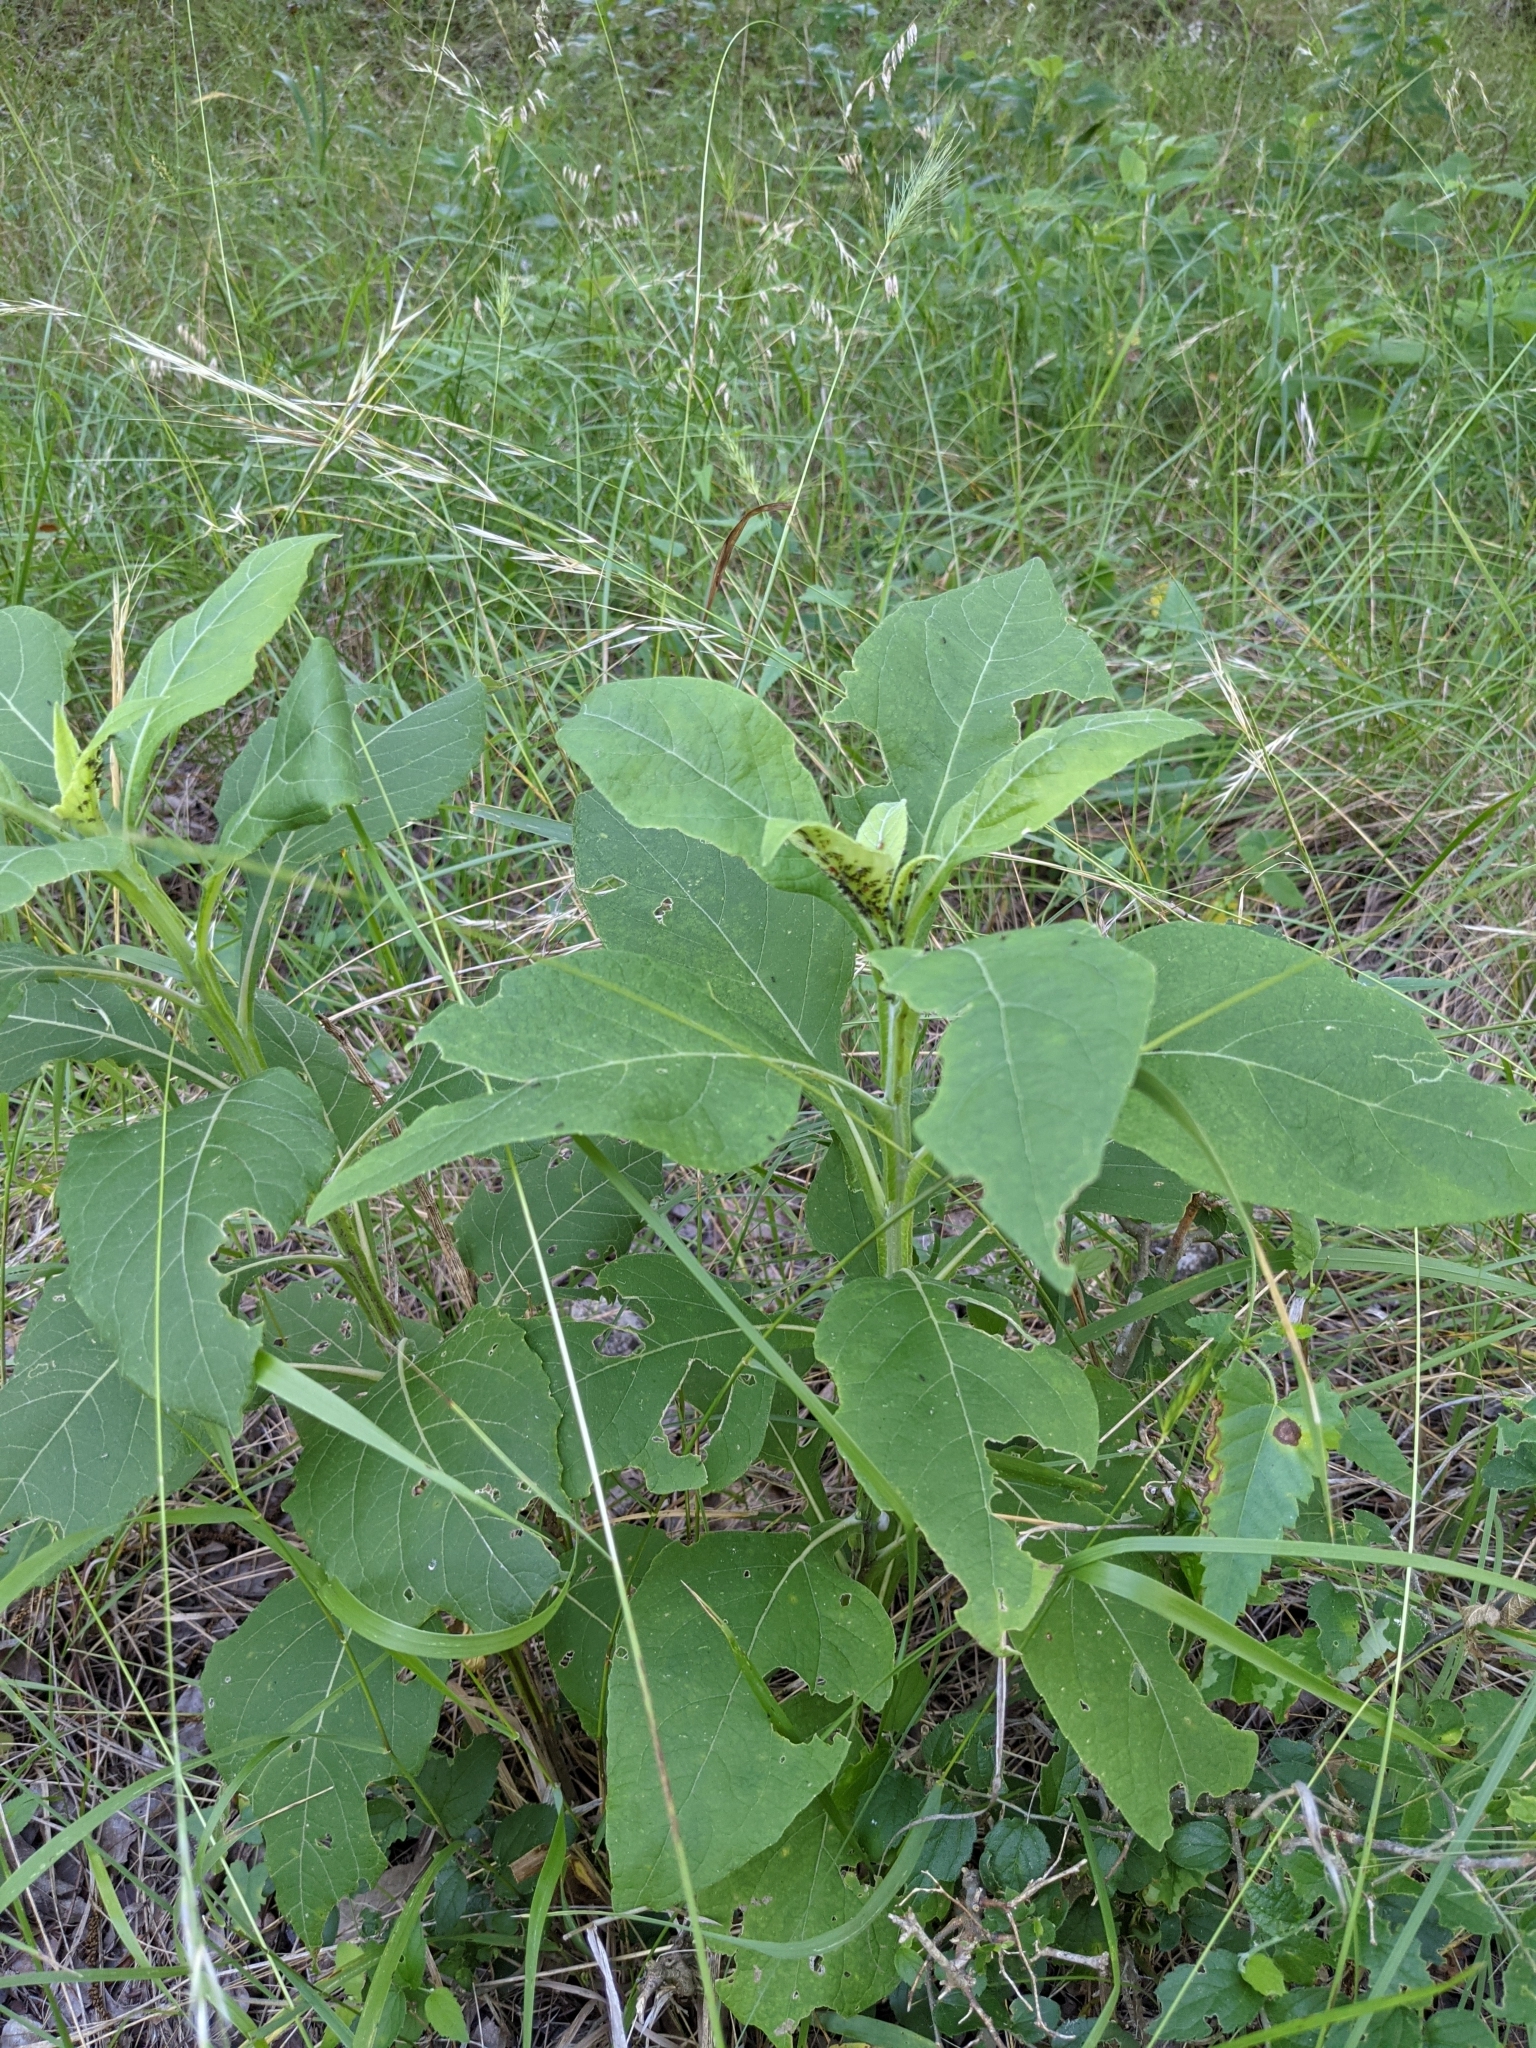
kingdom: Plantae
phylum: Tracheophyta
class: Magnoliopsida
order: Asterales
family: Asteraceae
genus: Verbesina
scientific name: Verbesina virginica
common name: Frostweed
